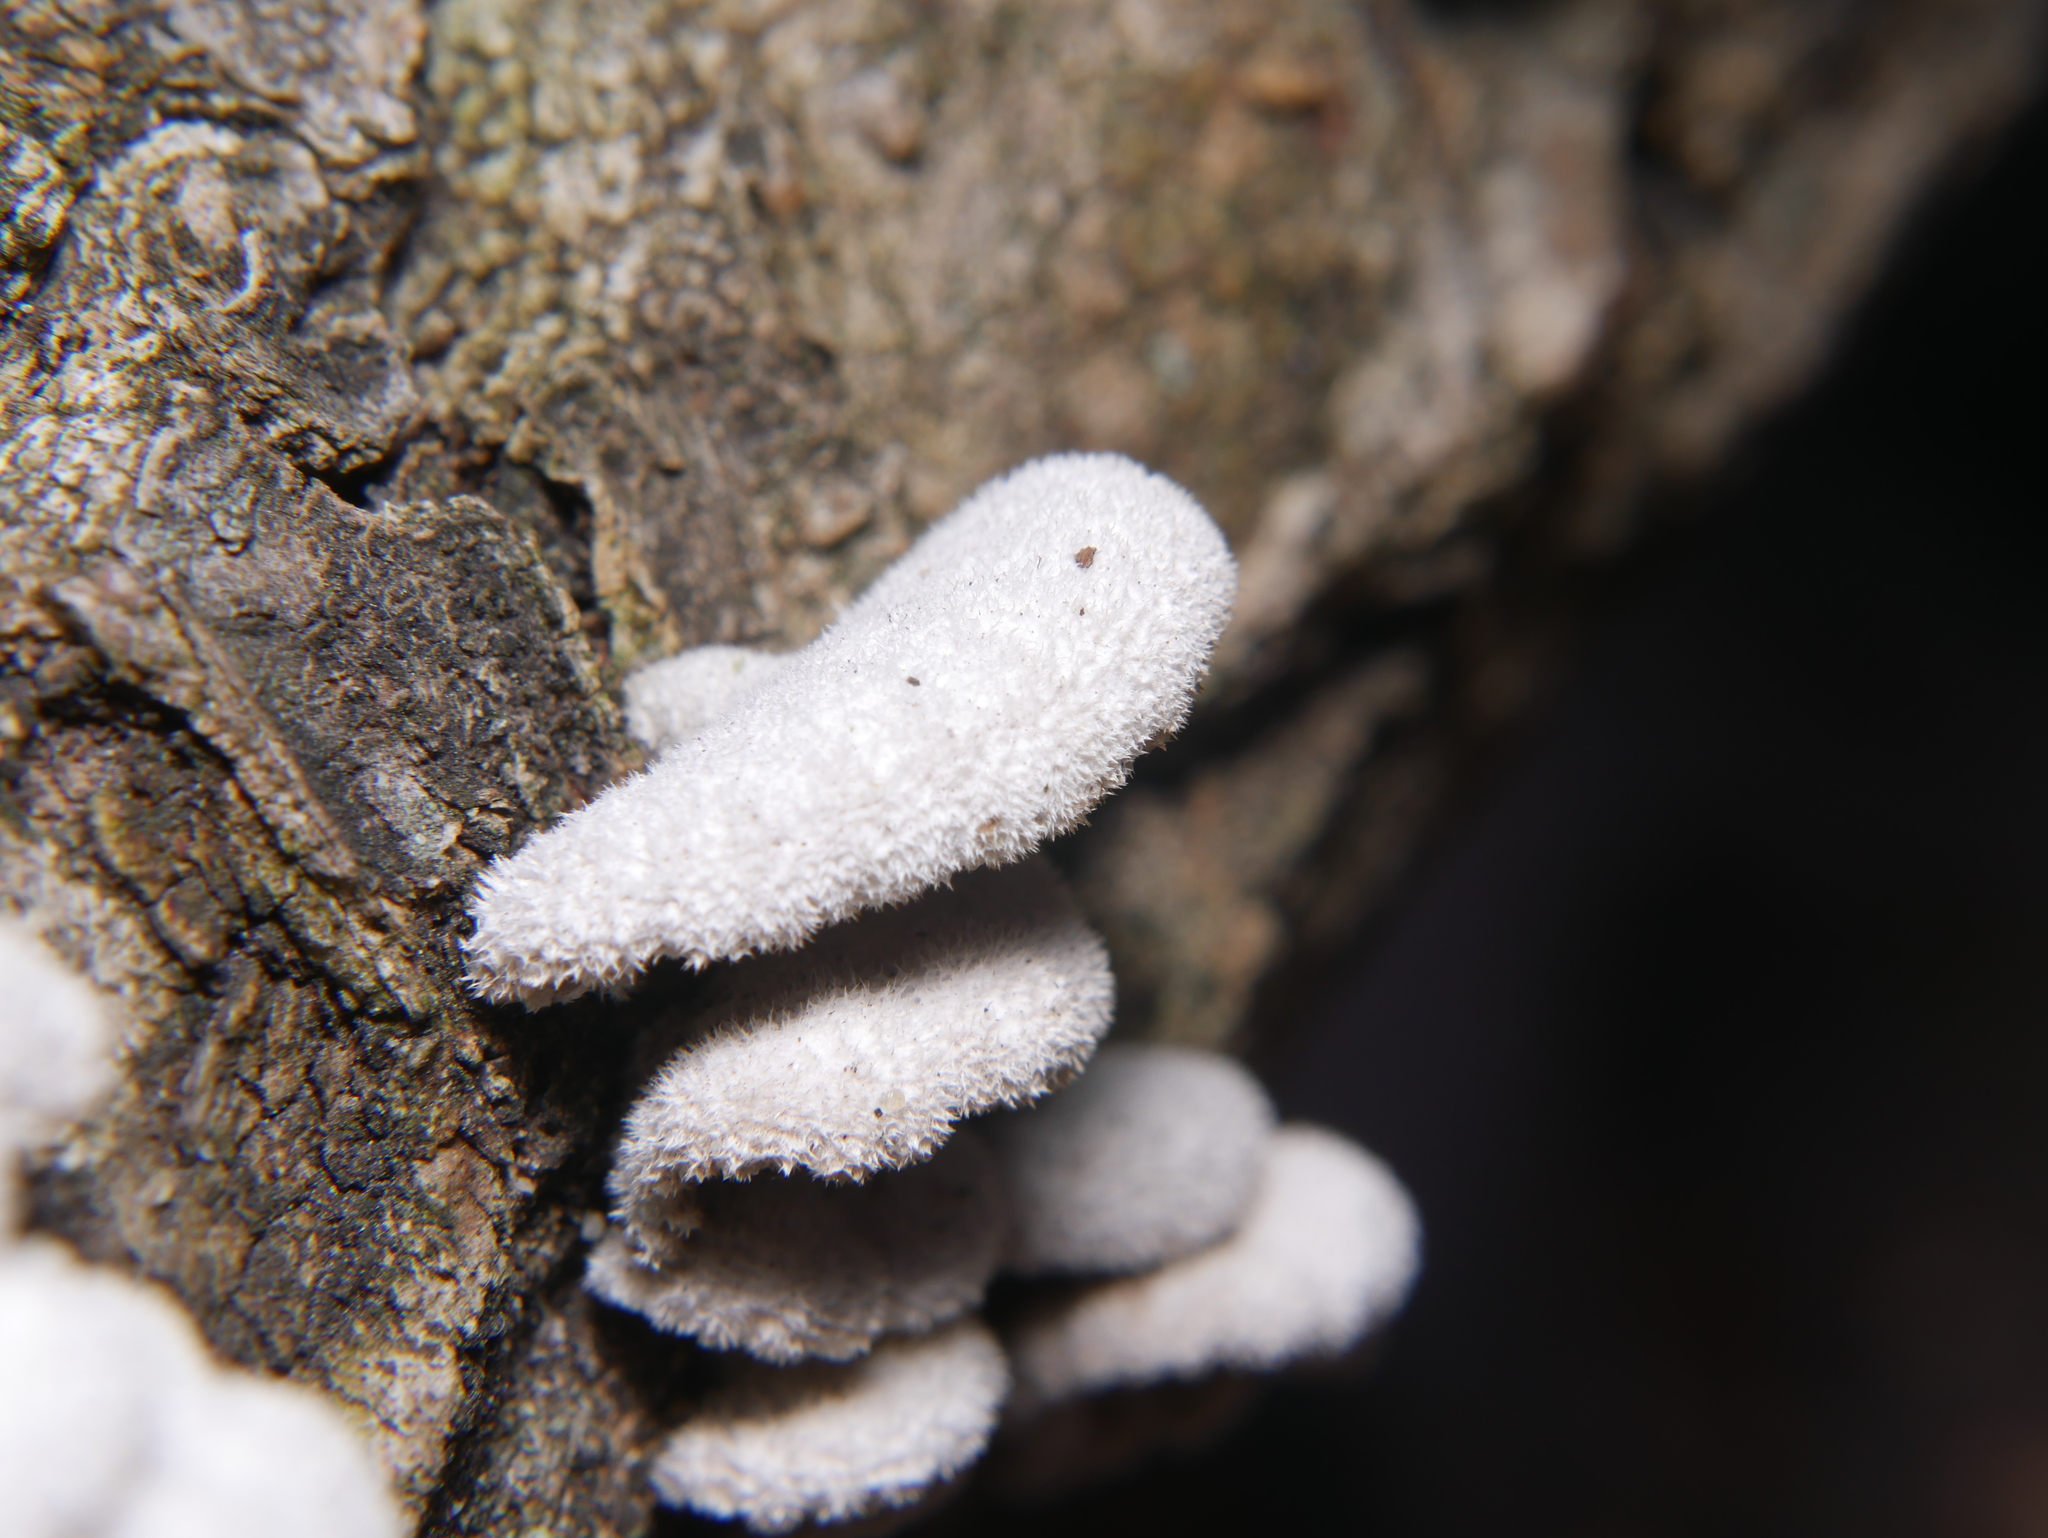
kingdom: Fungi
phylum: Basidiomycota
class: Agaricomycetes
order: Agaricales
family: Schizophyllaceae
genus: Schizophyllum
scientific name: Schizophyllum commune
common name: Common porecrust
